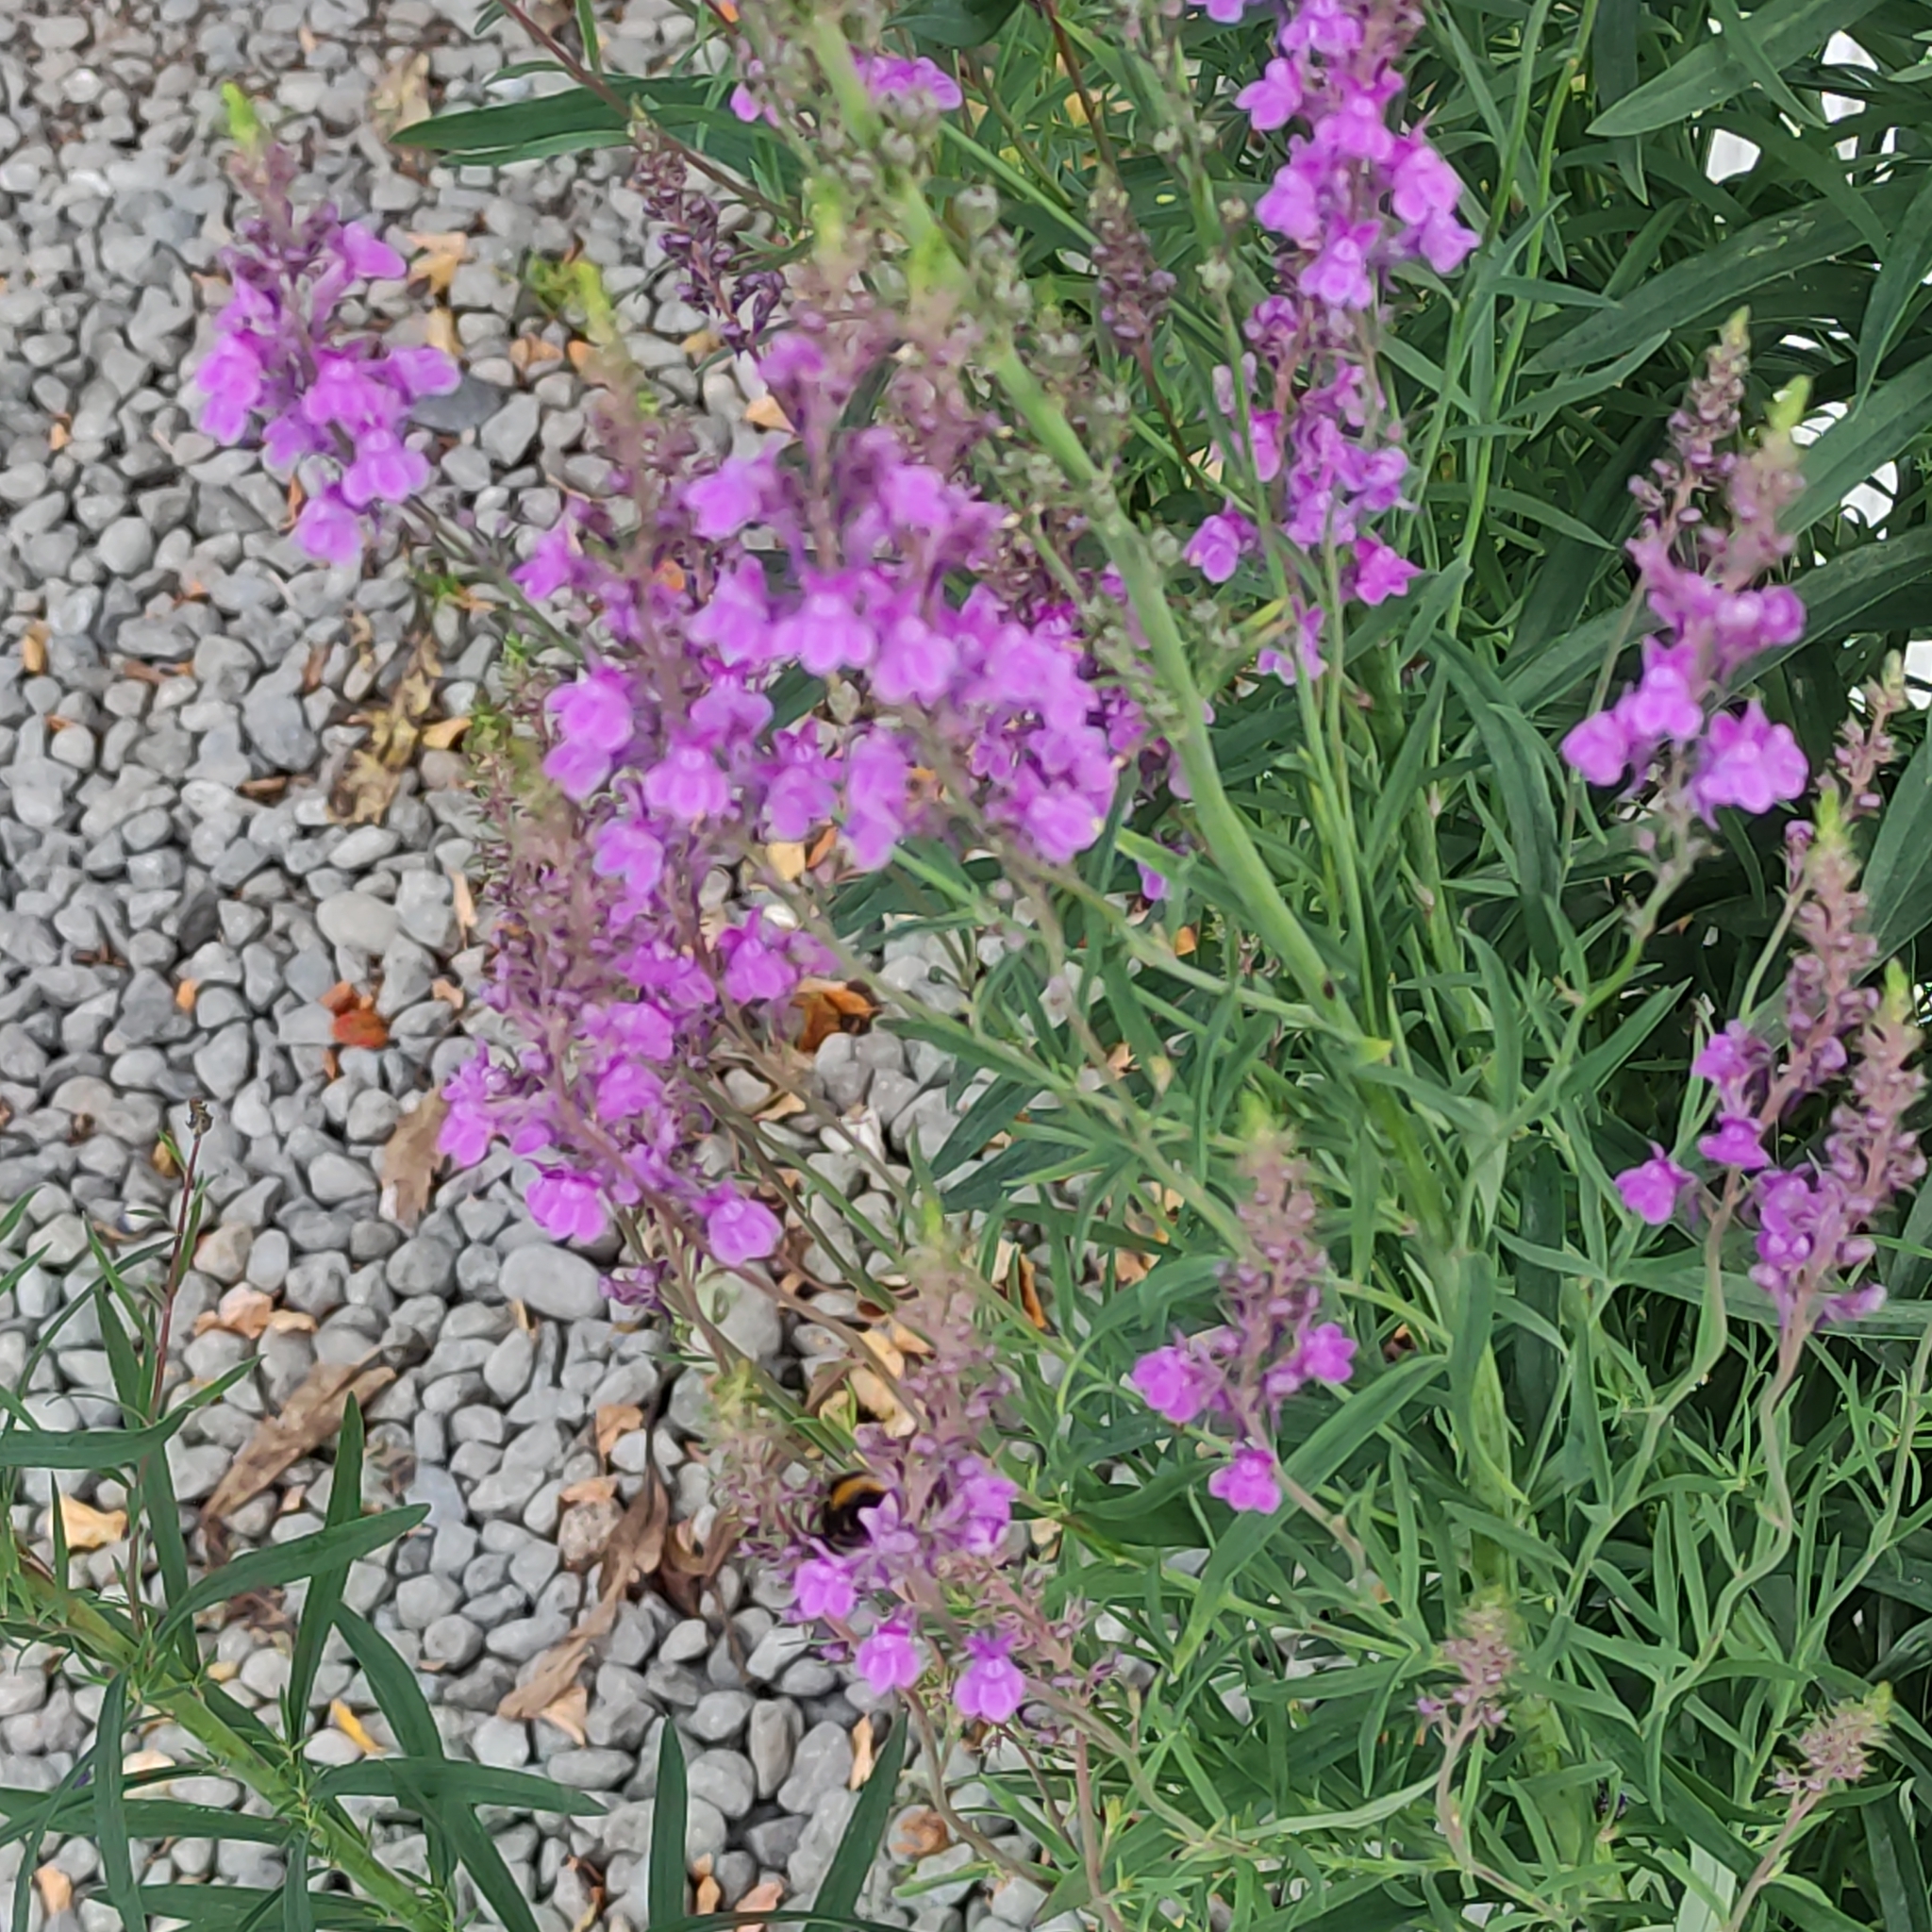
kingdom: Plantae
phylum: Tracheophyta
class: Magnoliopsida
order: Lamiales
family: Plantaginaceae
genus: Linaria
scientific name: Linaria purpurea
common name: Purple toadflax
